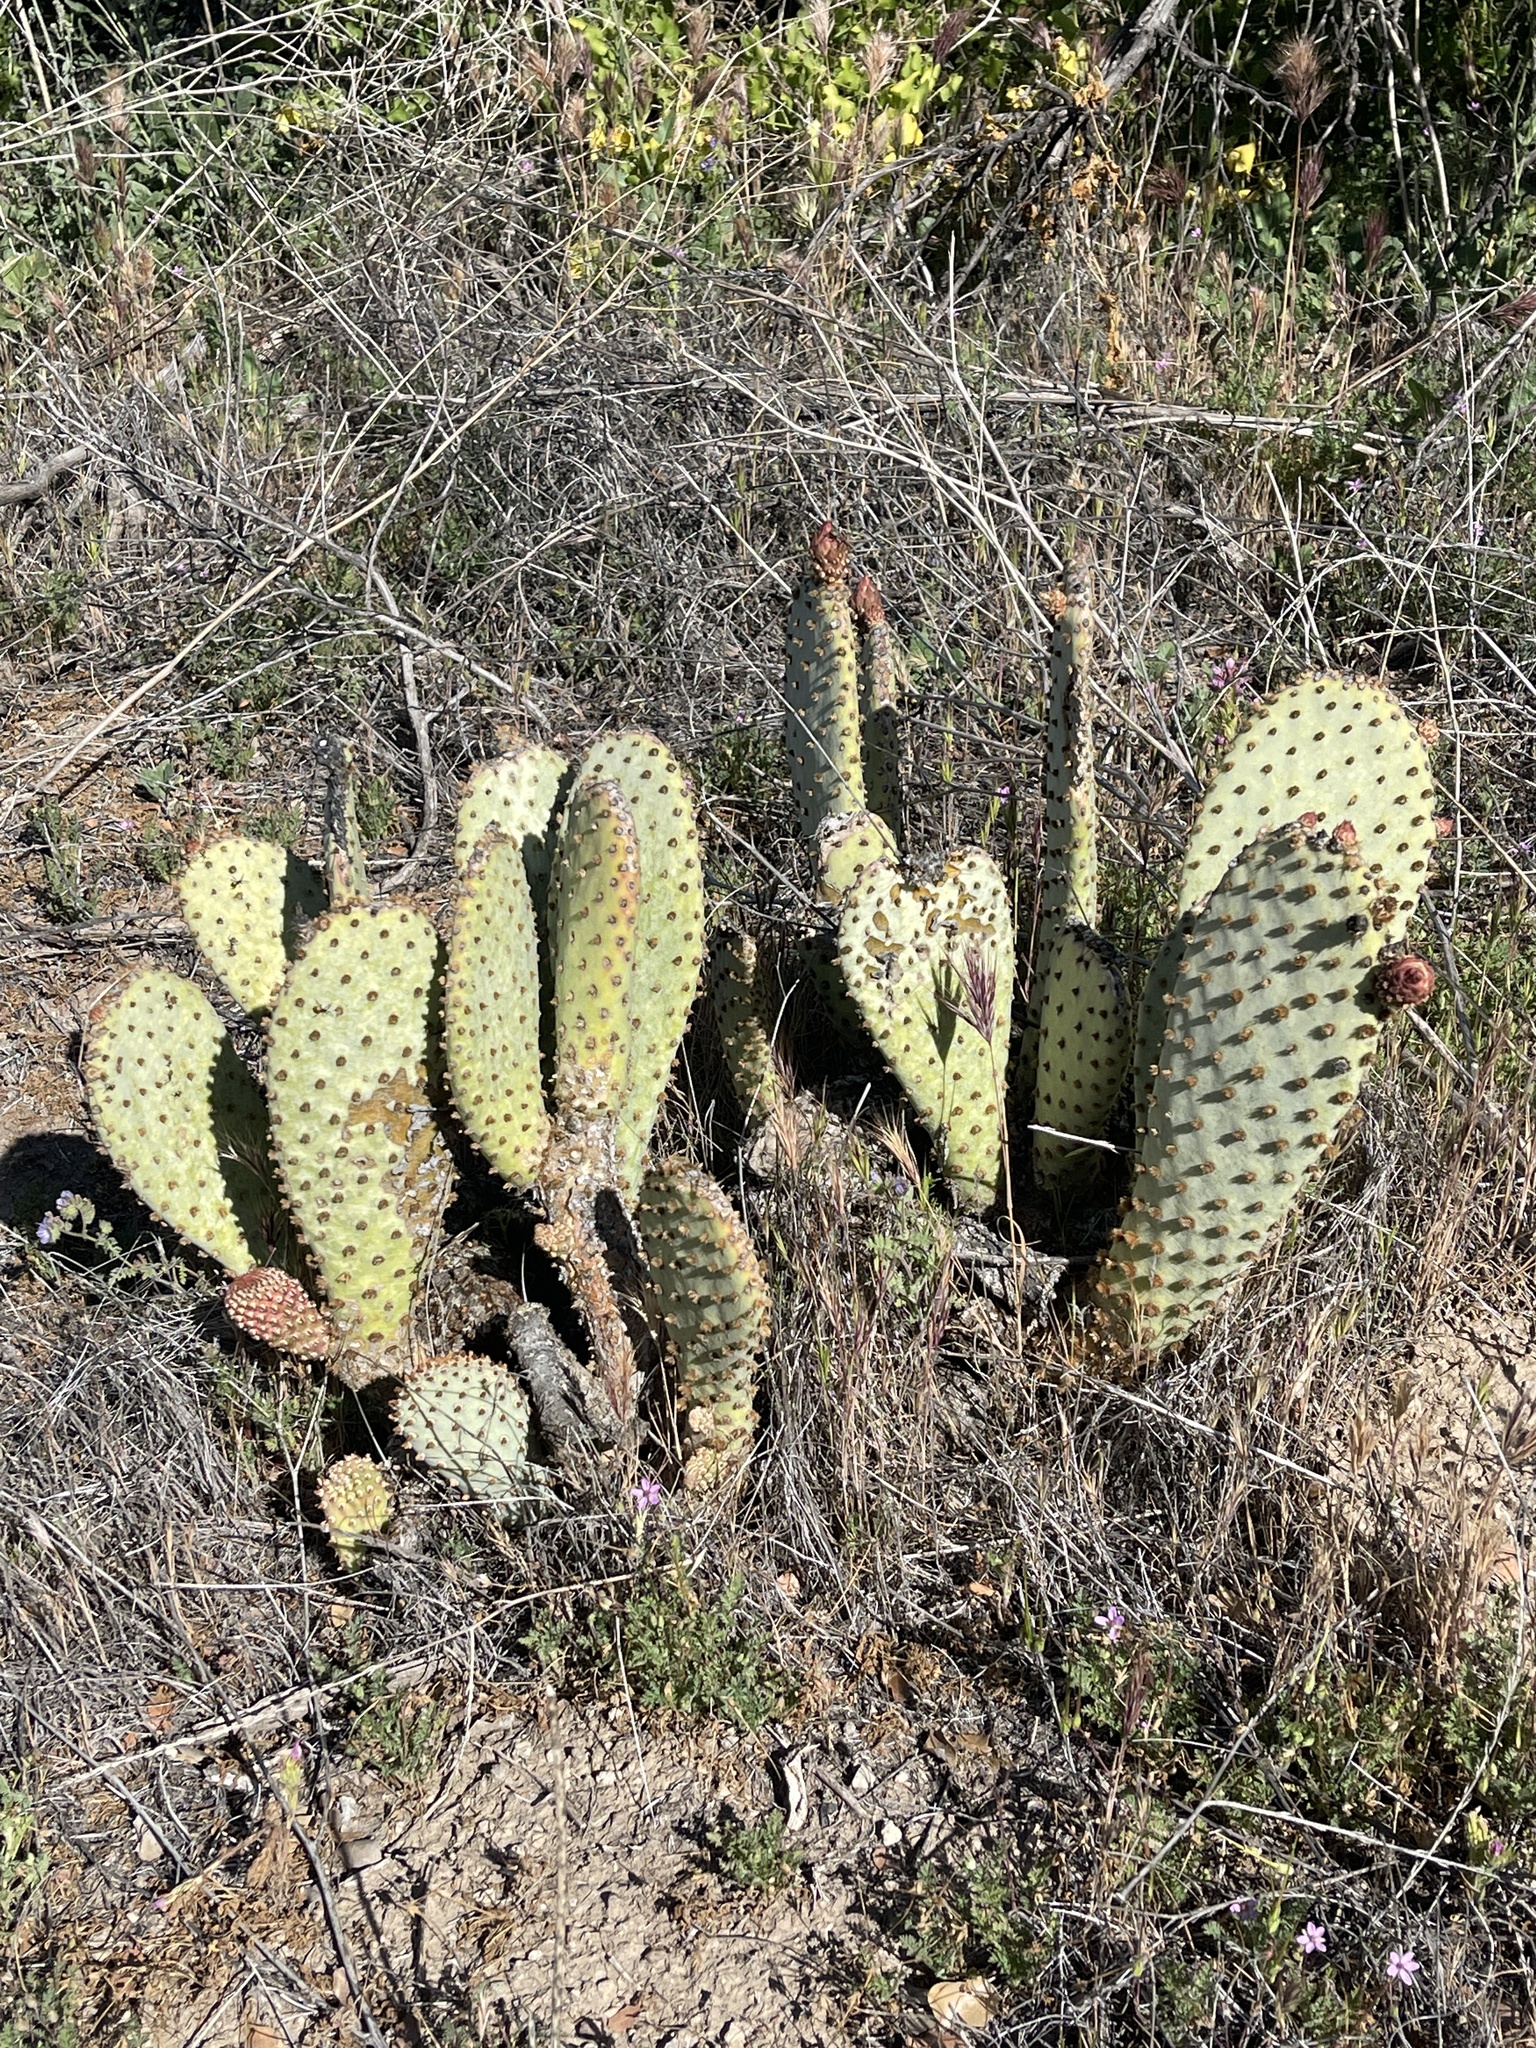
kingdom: Plantae
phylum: Tracheophyta
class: Magnoliopsida
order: Caryophyllales
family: Cactaceae
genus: Opuntia
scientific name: Opuntia basilaris
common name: Beavertail prickly-pear
